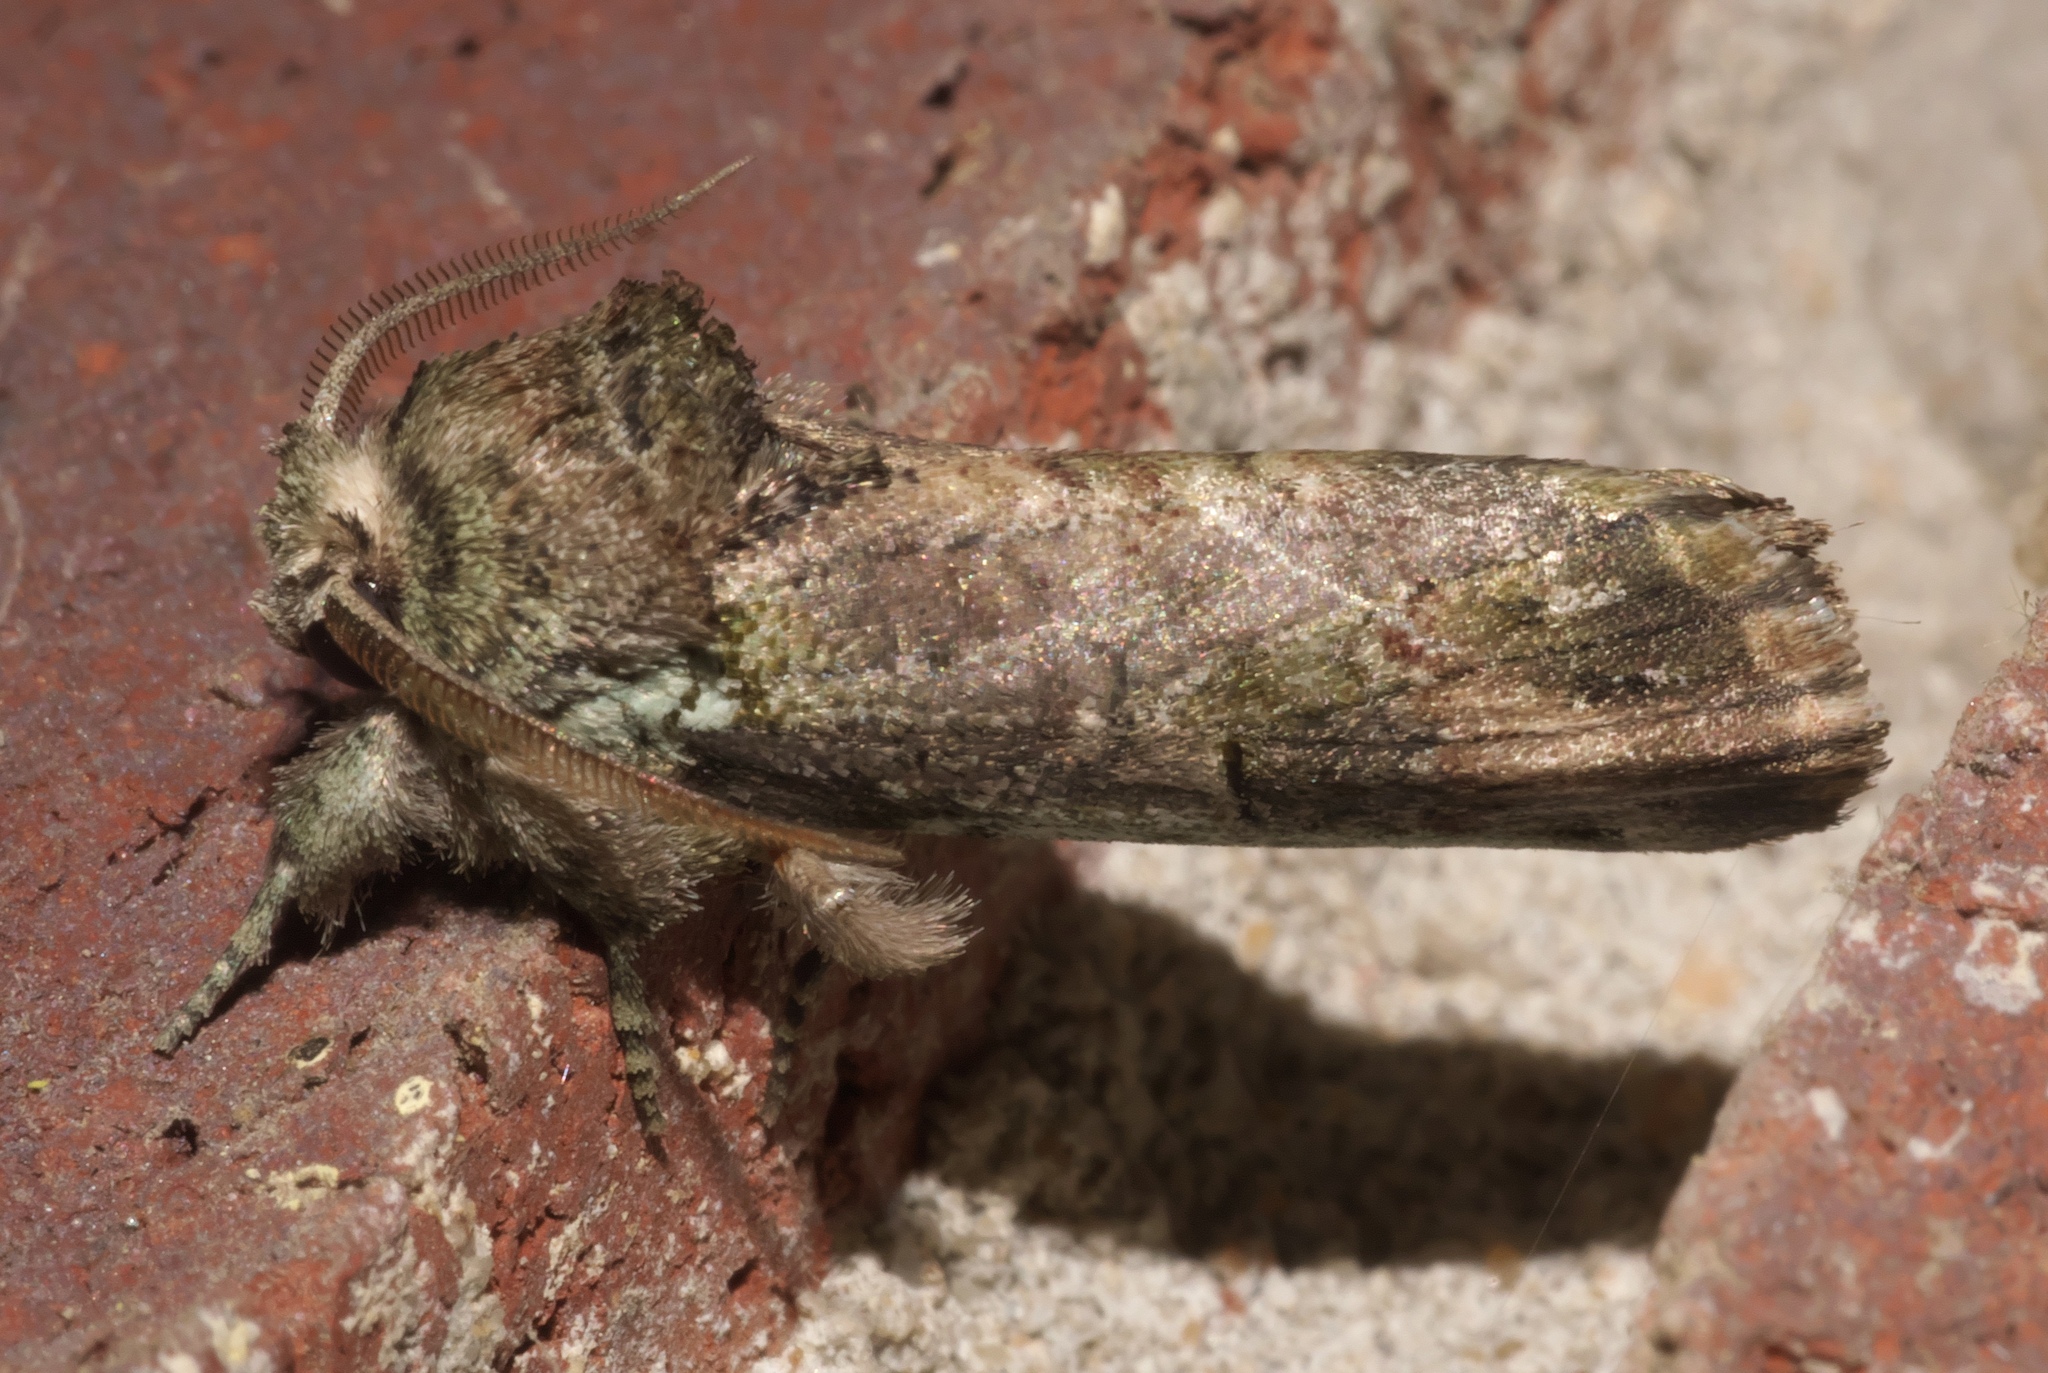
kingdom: Animalia
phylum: Arthropoda
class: Insecta
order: Lepidoptera
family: Notodontidae
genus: Schizura
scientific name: Schizura
